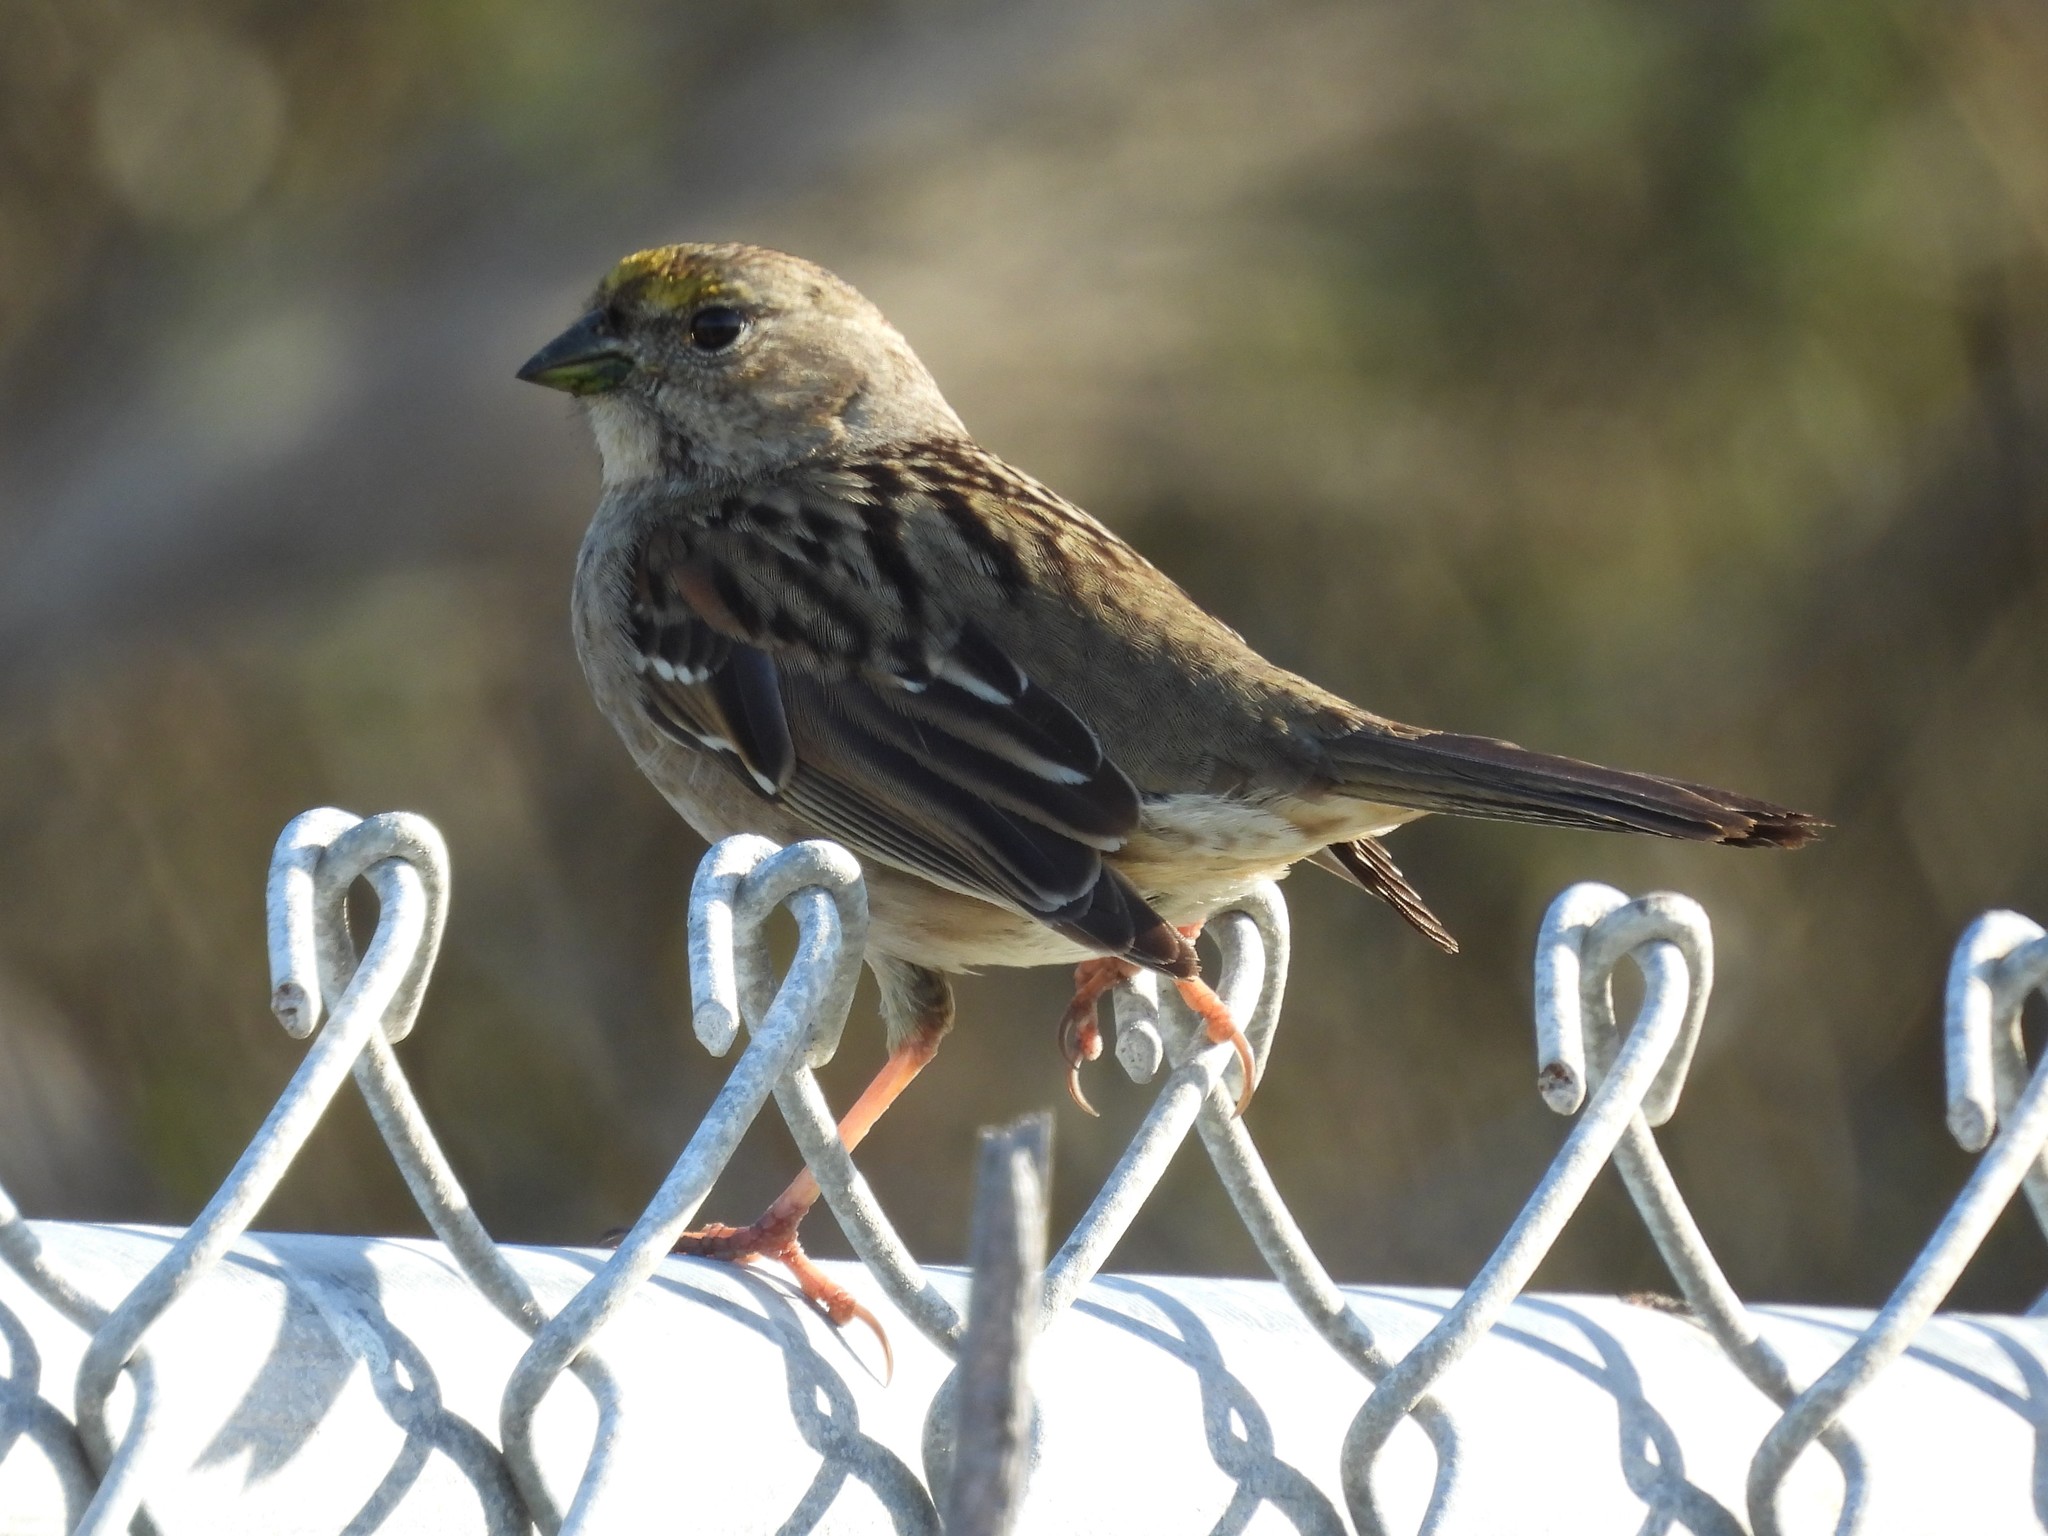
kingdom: Animalia
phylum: Chordata
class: Aves
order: Passeriformes
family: Passerellidae
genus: Zonotrichia
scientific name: Zonotrichia atricapilla
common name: Golden-crowned sparrow
